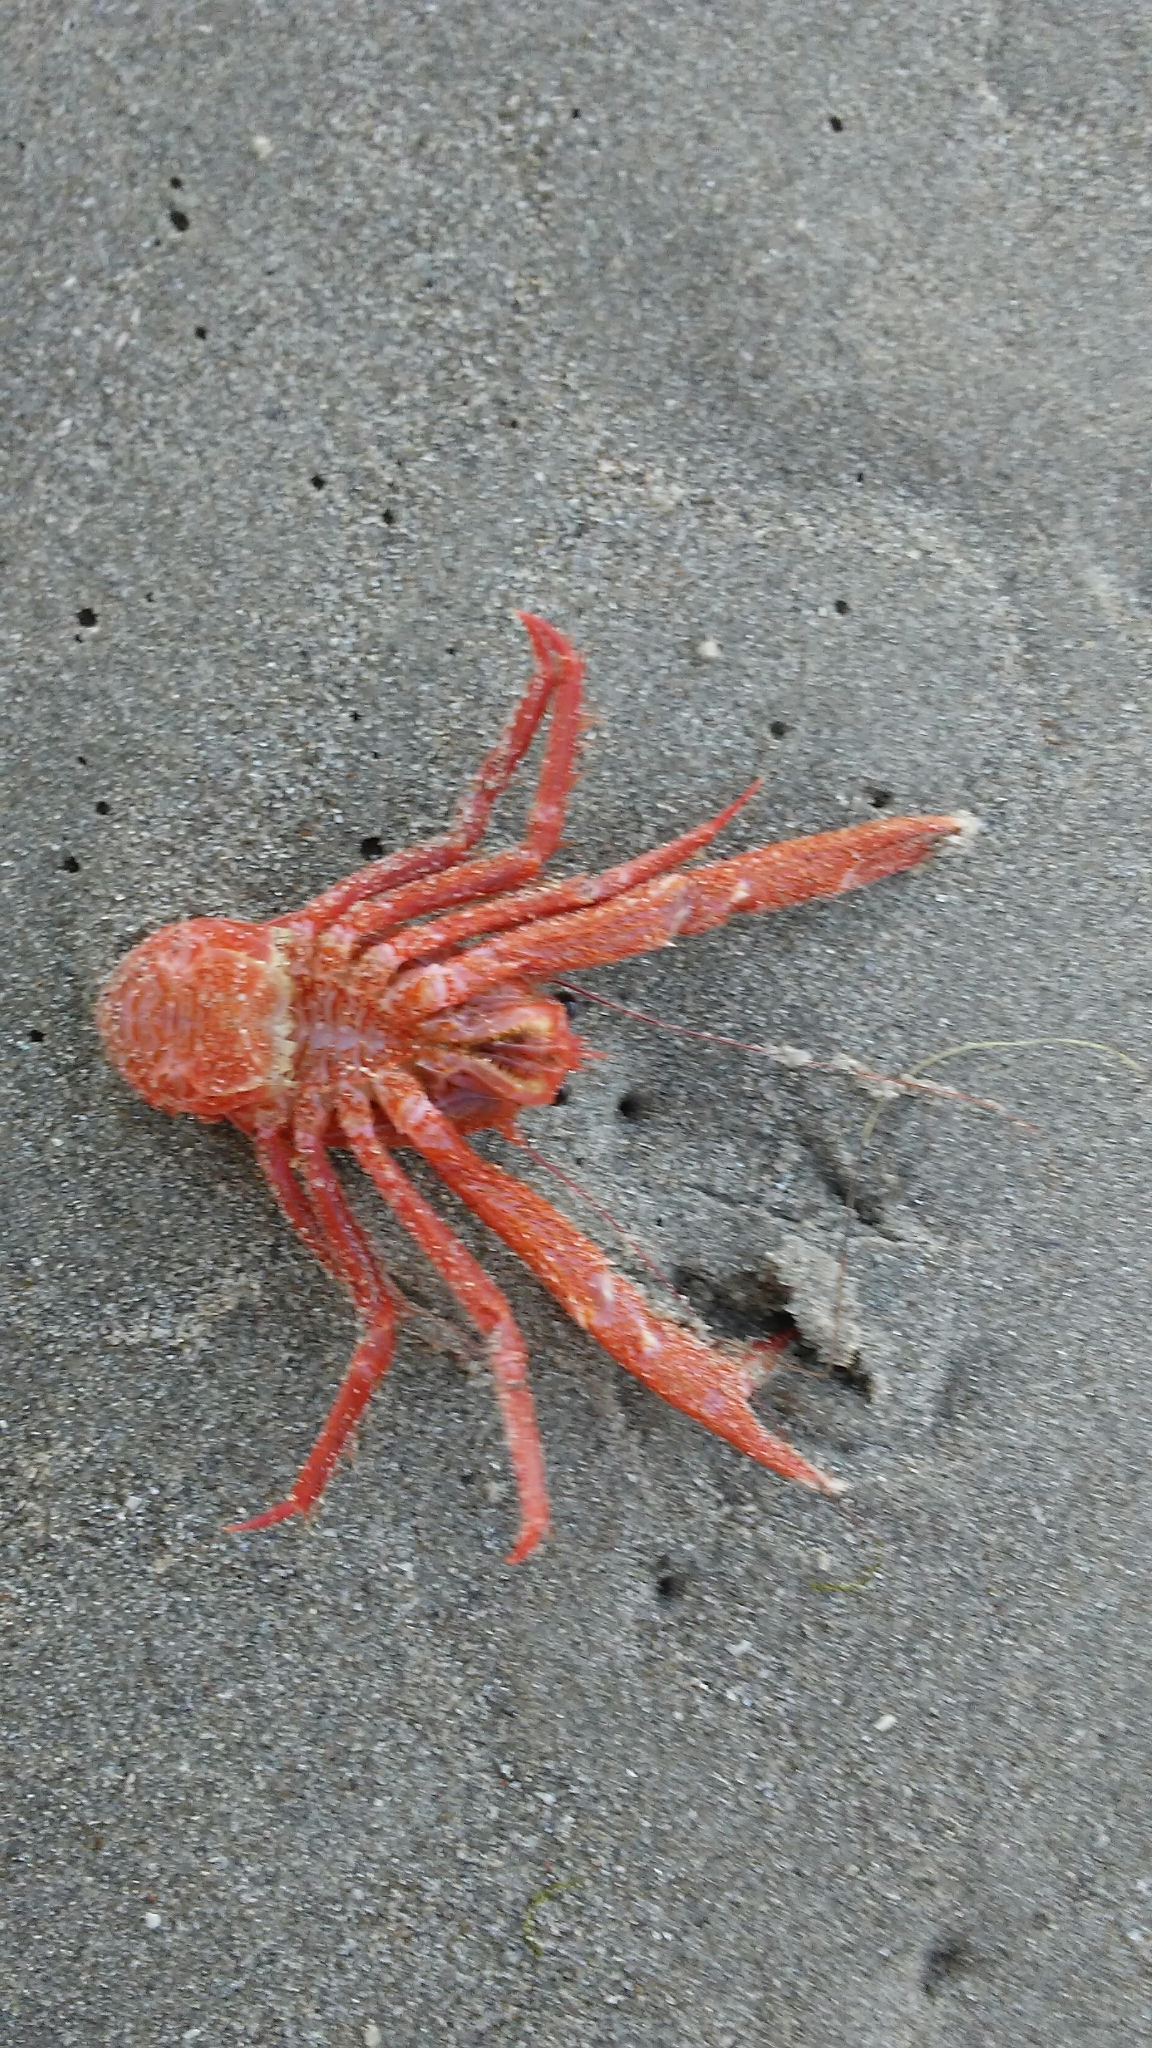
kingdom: Animalia
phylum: Arthropoda
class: Malacostraca
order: Decapoda
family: Munididae
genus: Grimothea
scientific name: Grimothea planipes
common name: Pelagic red crab
